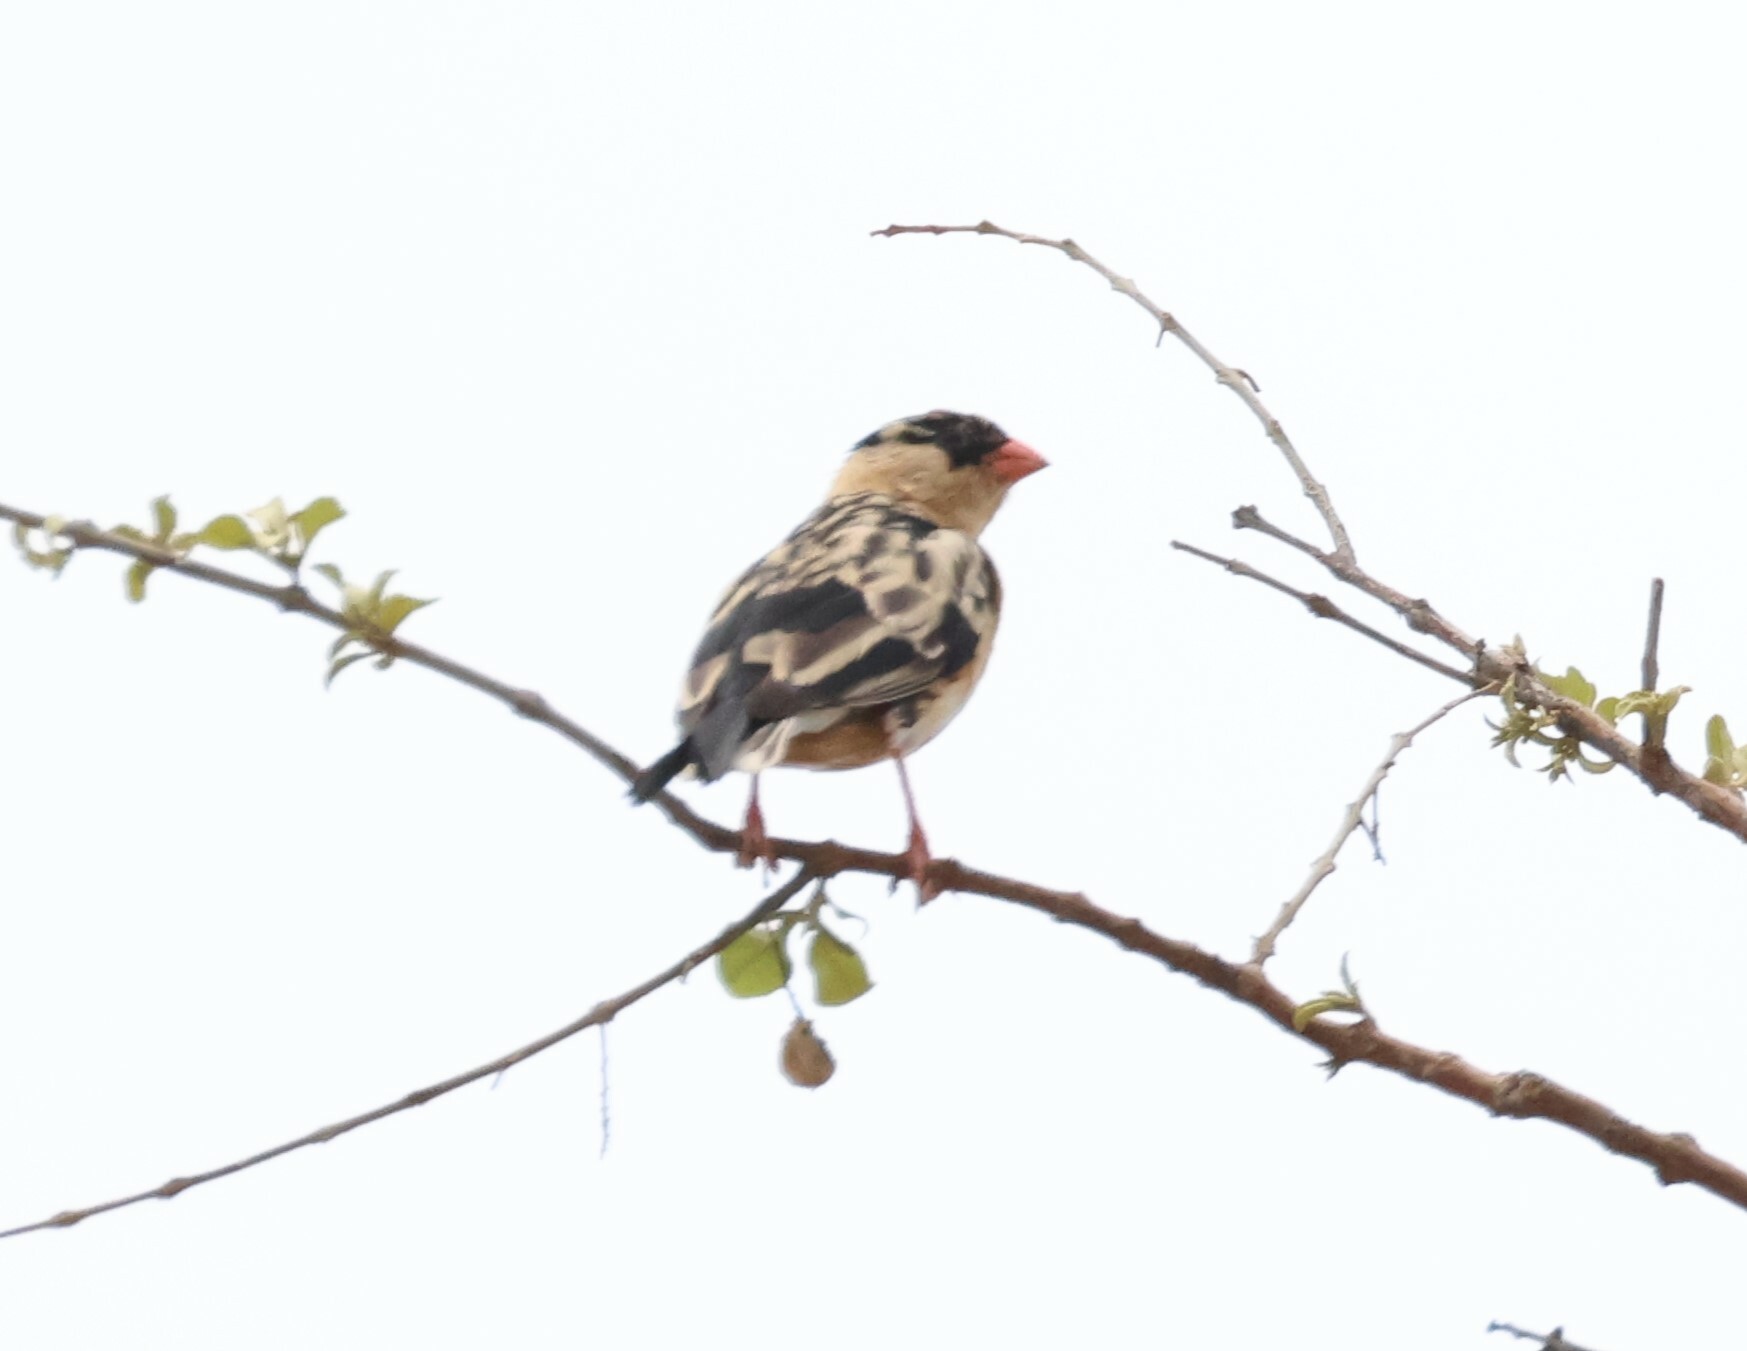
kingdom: Animalia
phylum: Chordata
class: Aves
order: Passeriformes
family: Viduidae
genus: Vidua
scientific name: Vidua regia
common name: Shaft-tailed whydah
